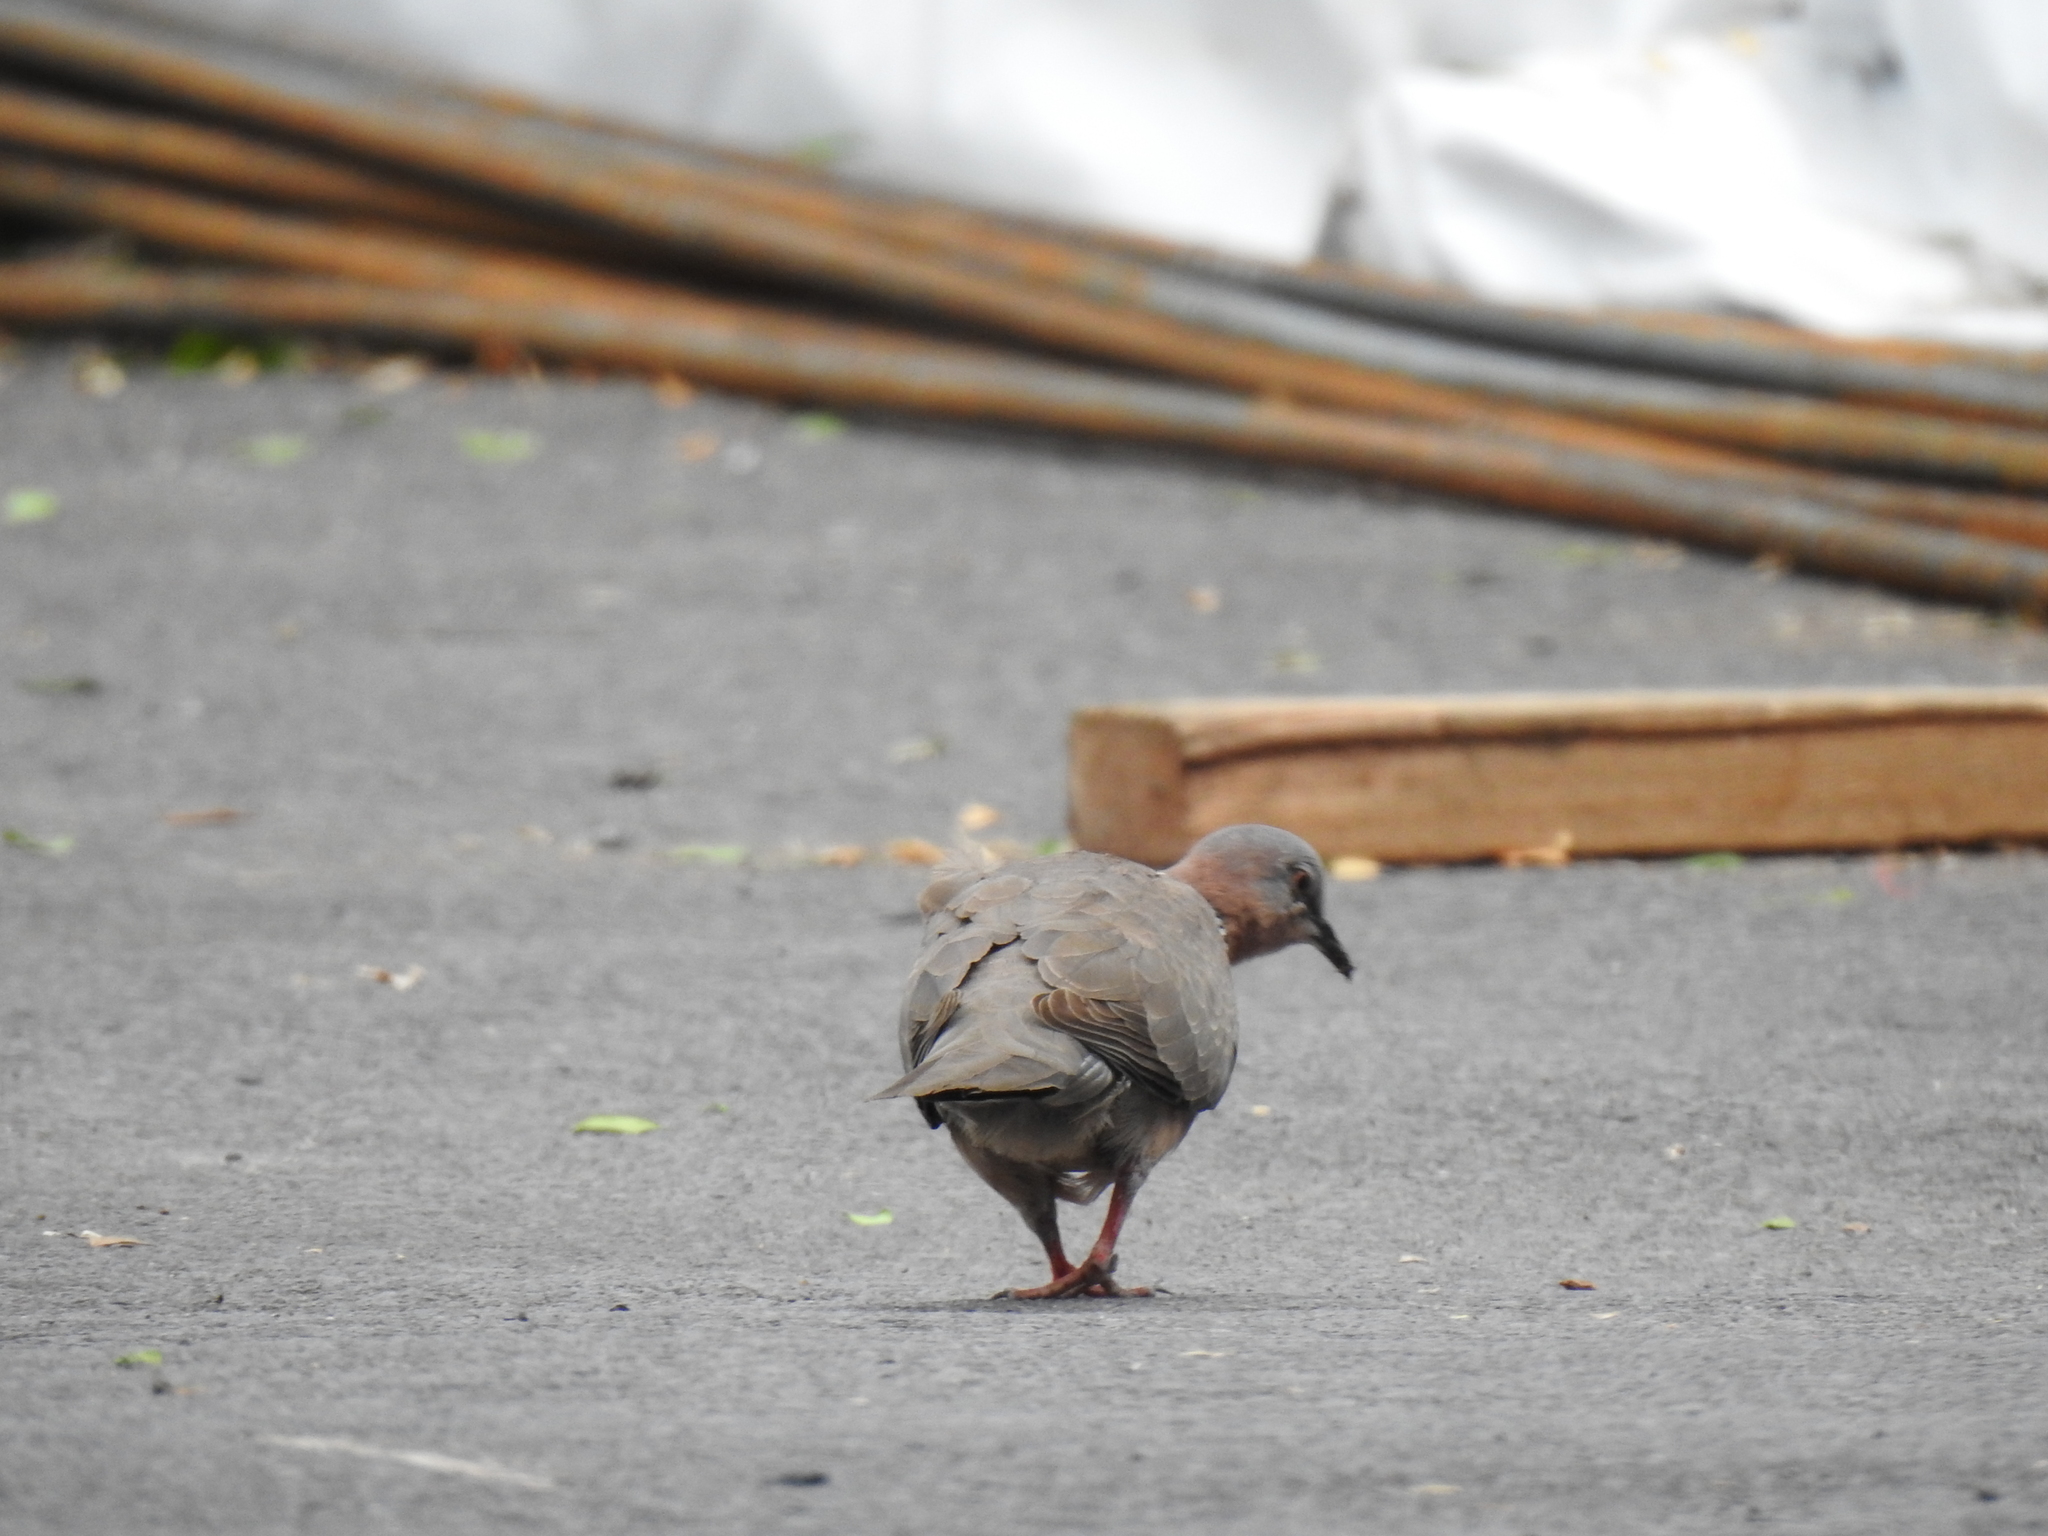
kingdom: Animalia
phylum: Chordata
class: Aves
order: Columbiformes
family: Columbidae
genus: Spilopelia
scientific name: Spilopelia chinensis
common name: Spotted dove
